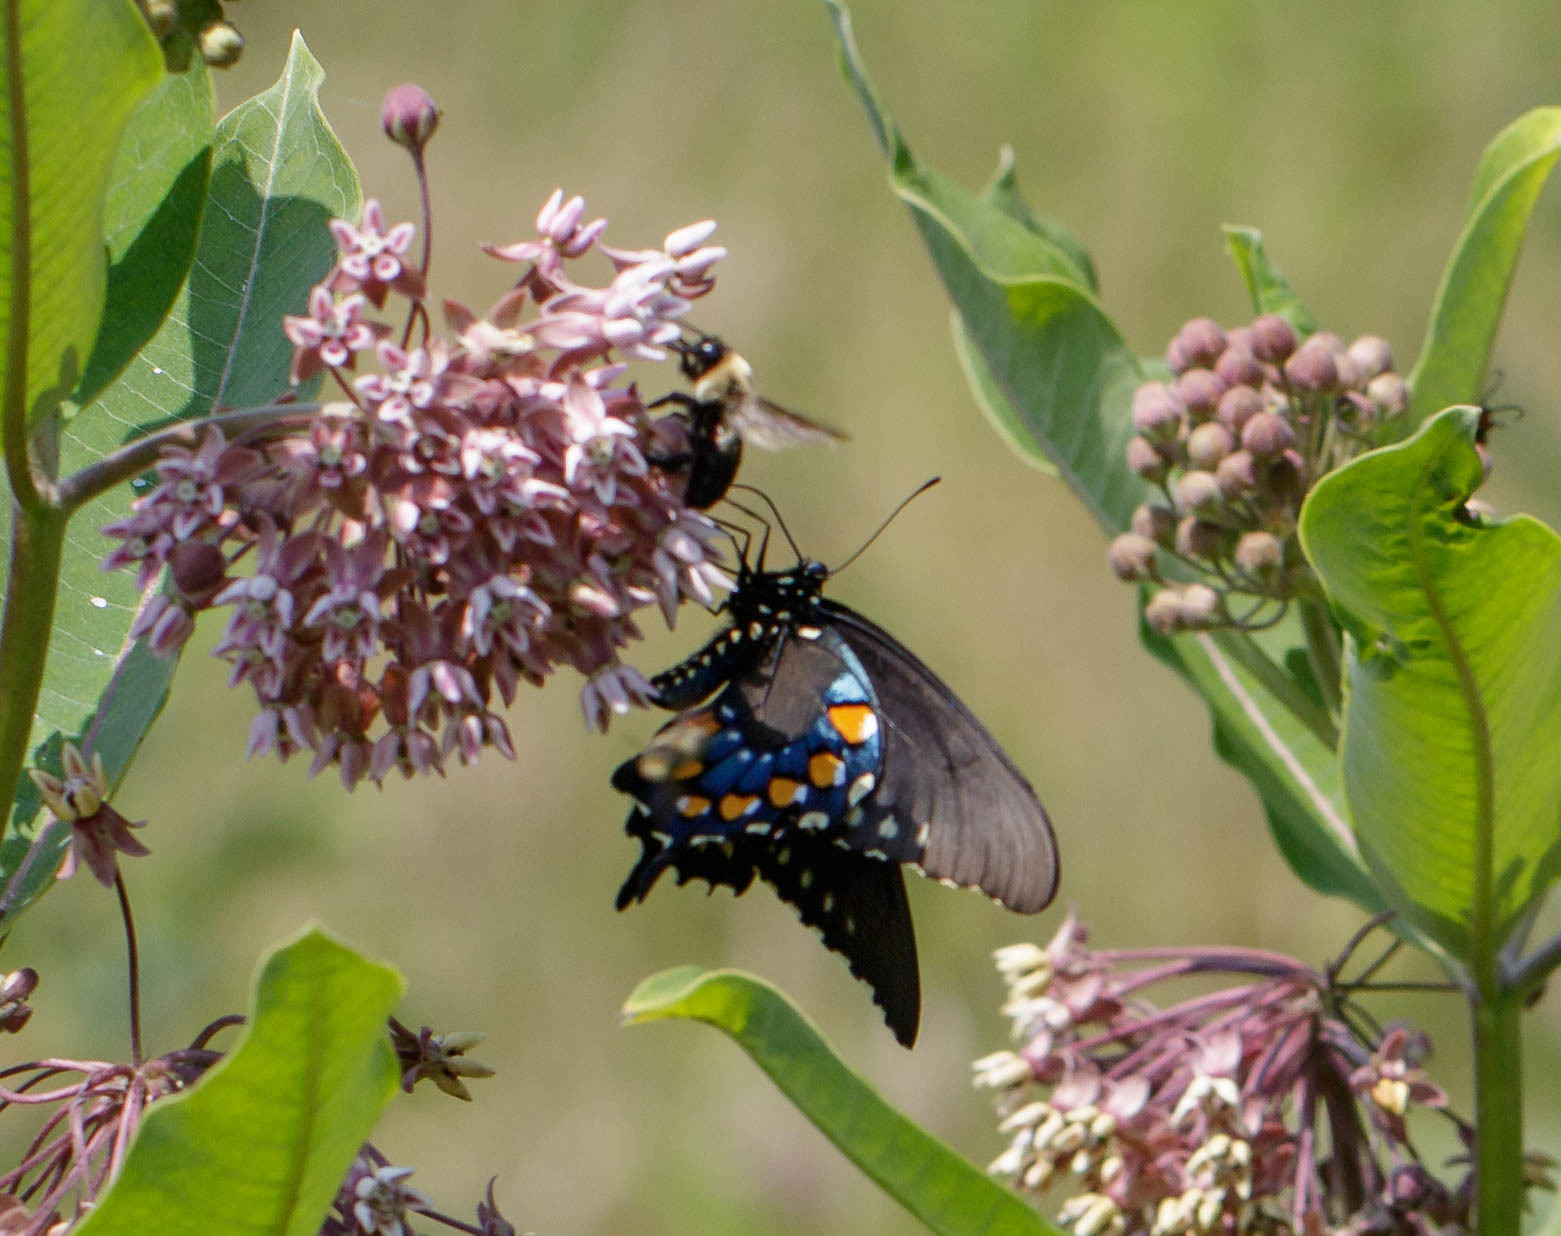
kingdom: Animalia
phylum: Arthropoda
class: Insecta
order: Lepidoptera
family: Papilionidae
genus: Battus
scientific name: Battus philenor
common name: Pipevine swallowtail
